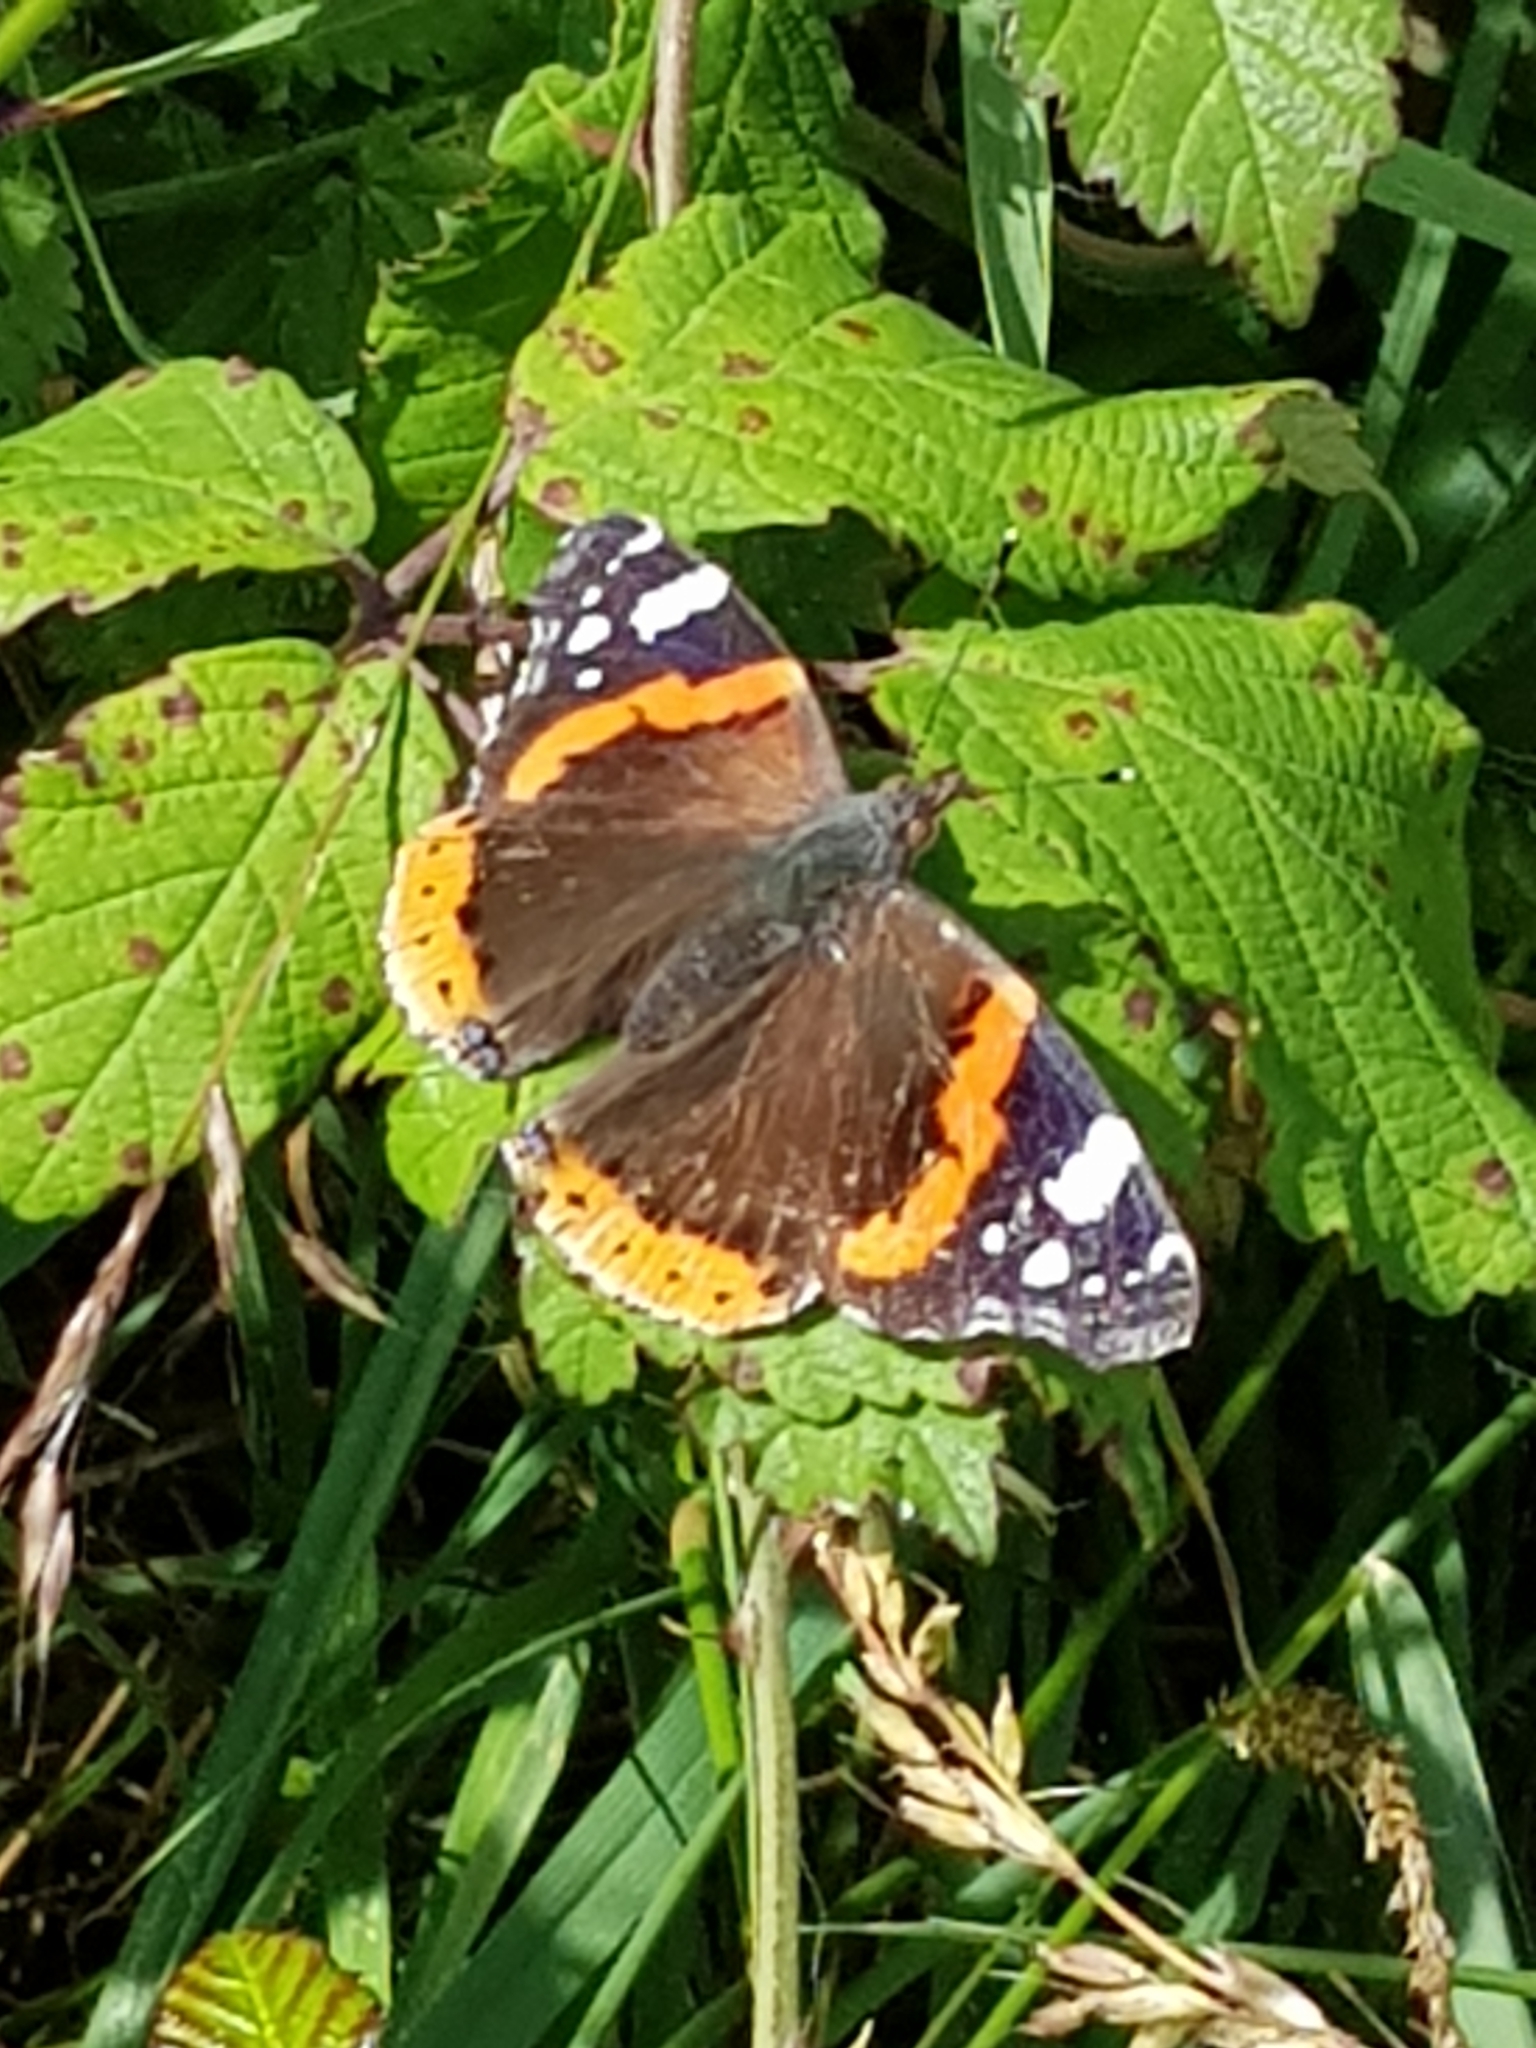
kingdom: Animalia
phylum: Arthropoda
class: Insecta
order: Lepidoptera
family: Nymphalidae
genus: Vanessa
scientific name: Vanessa atalanta
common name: Red admiral
